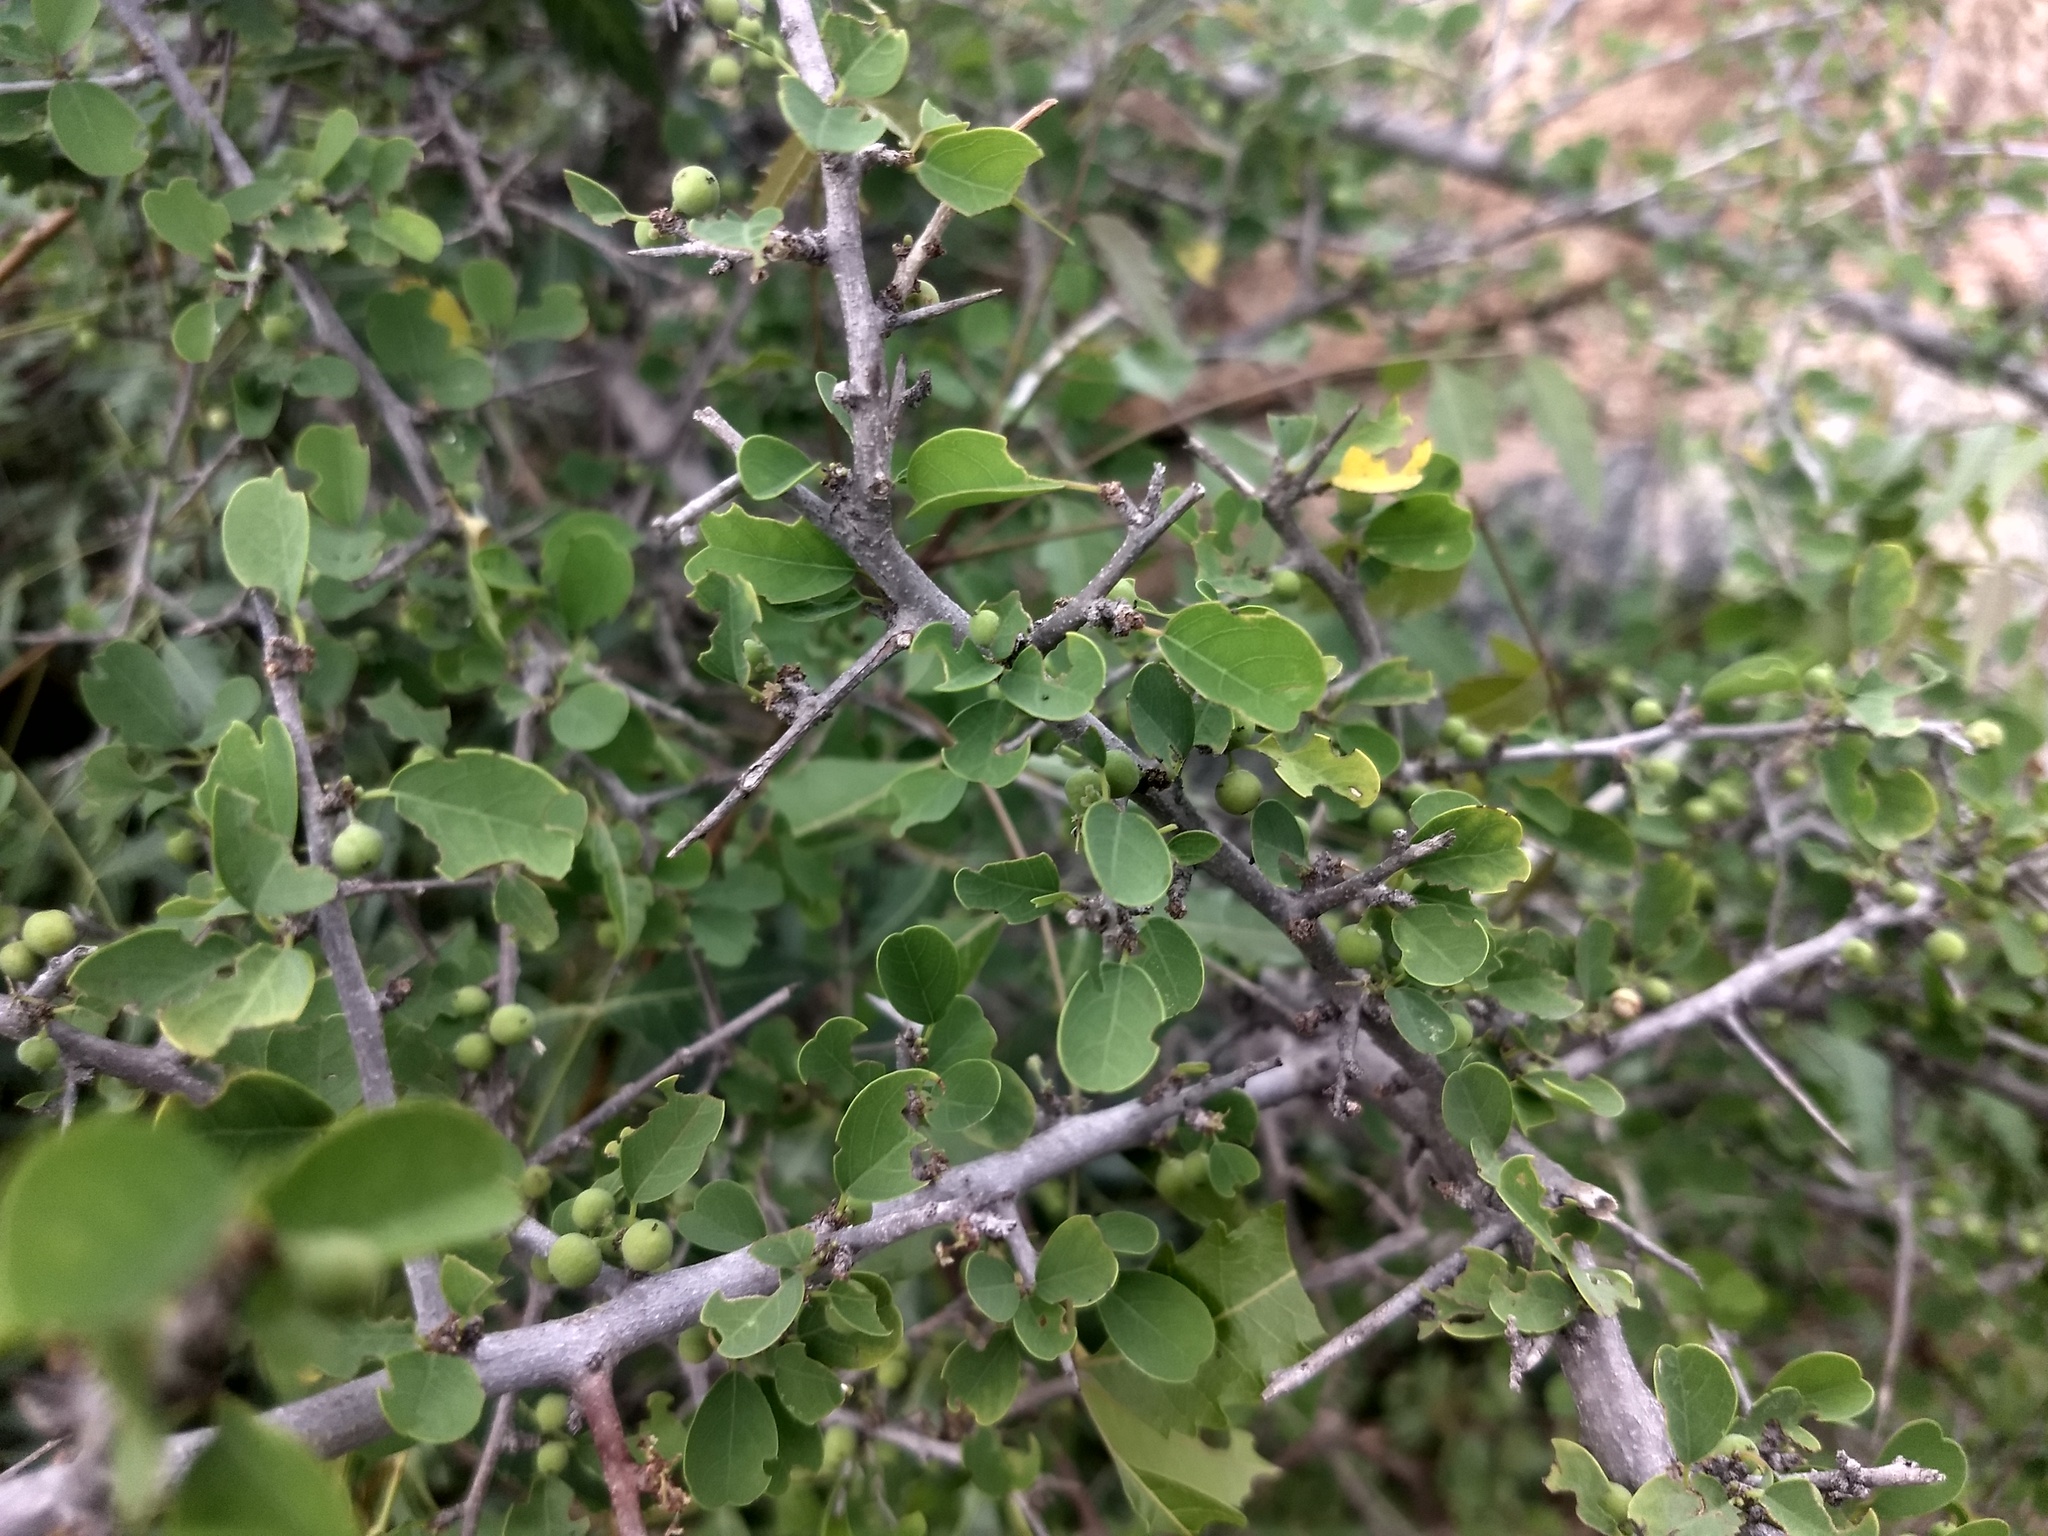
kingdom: Plantae
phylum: Tracheophyta
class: Magnoliopsida
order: Malpighiales
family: Phyllanthaceae
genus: Flueggea
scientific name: Flueggea leucopyrus
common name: Bushweed
